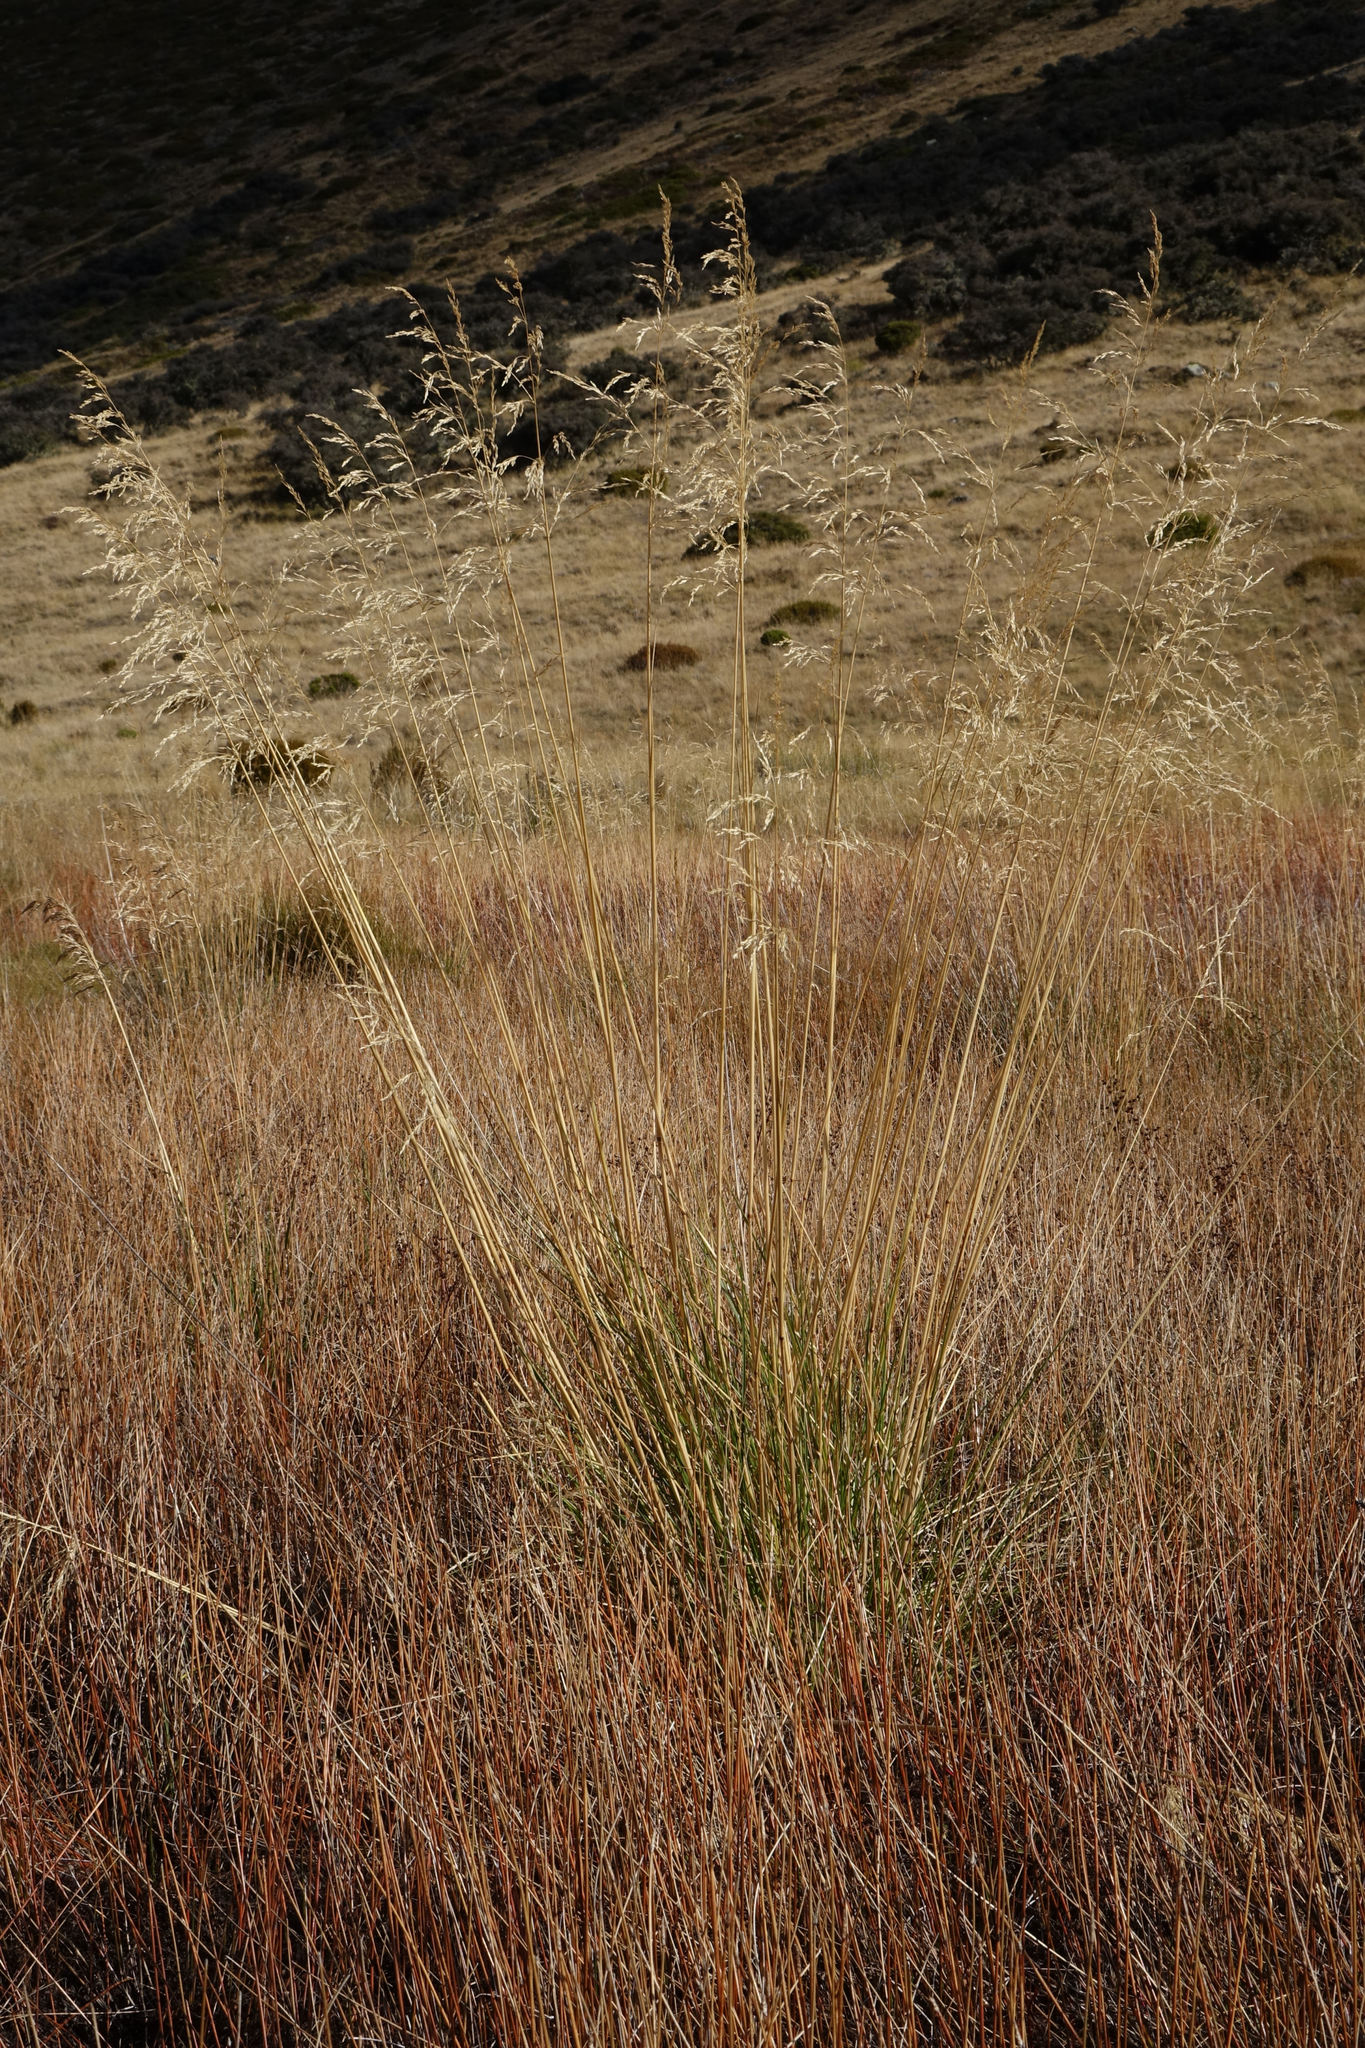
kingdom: Plantae
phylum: Tracheophyta
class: Liliopsida
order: Poales
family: Poaceae
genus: Deschampsia
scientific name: Deschampsia cespitosa
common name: Tufted hair-grass
